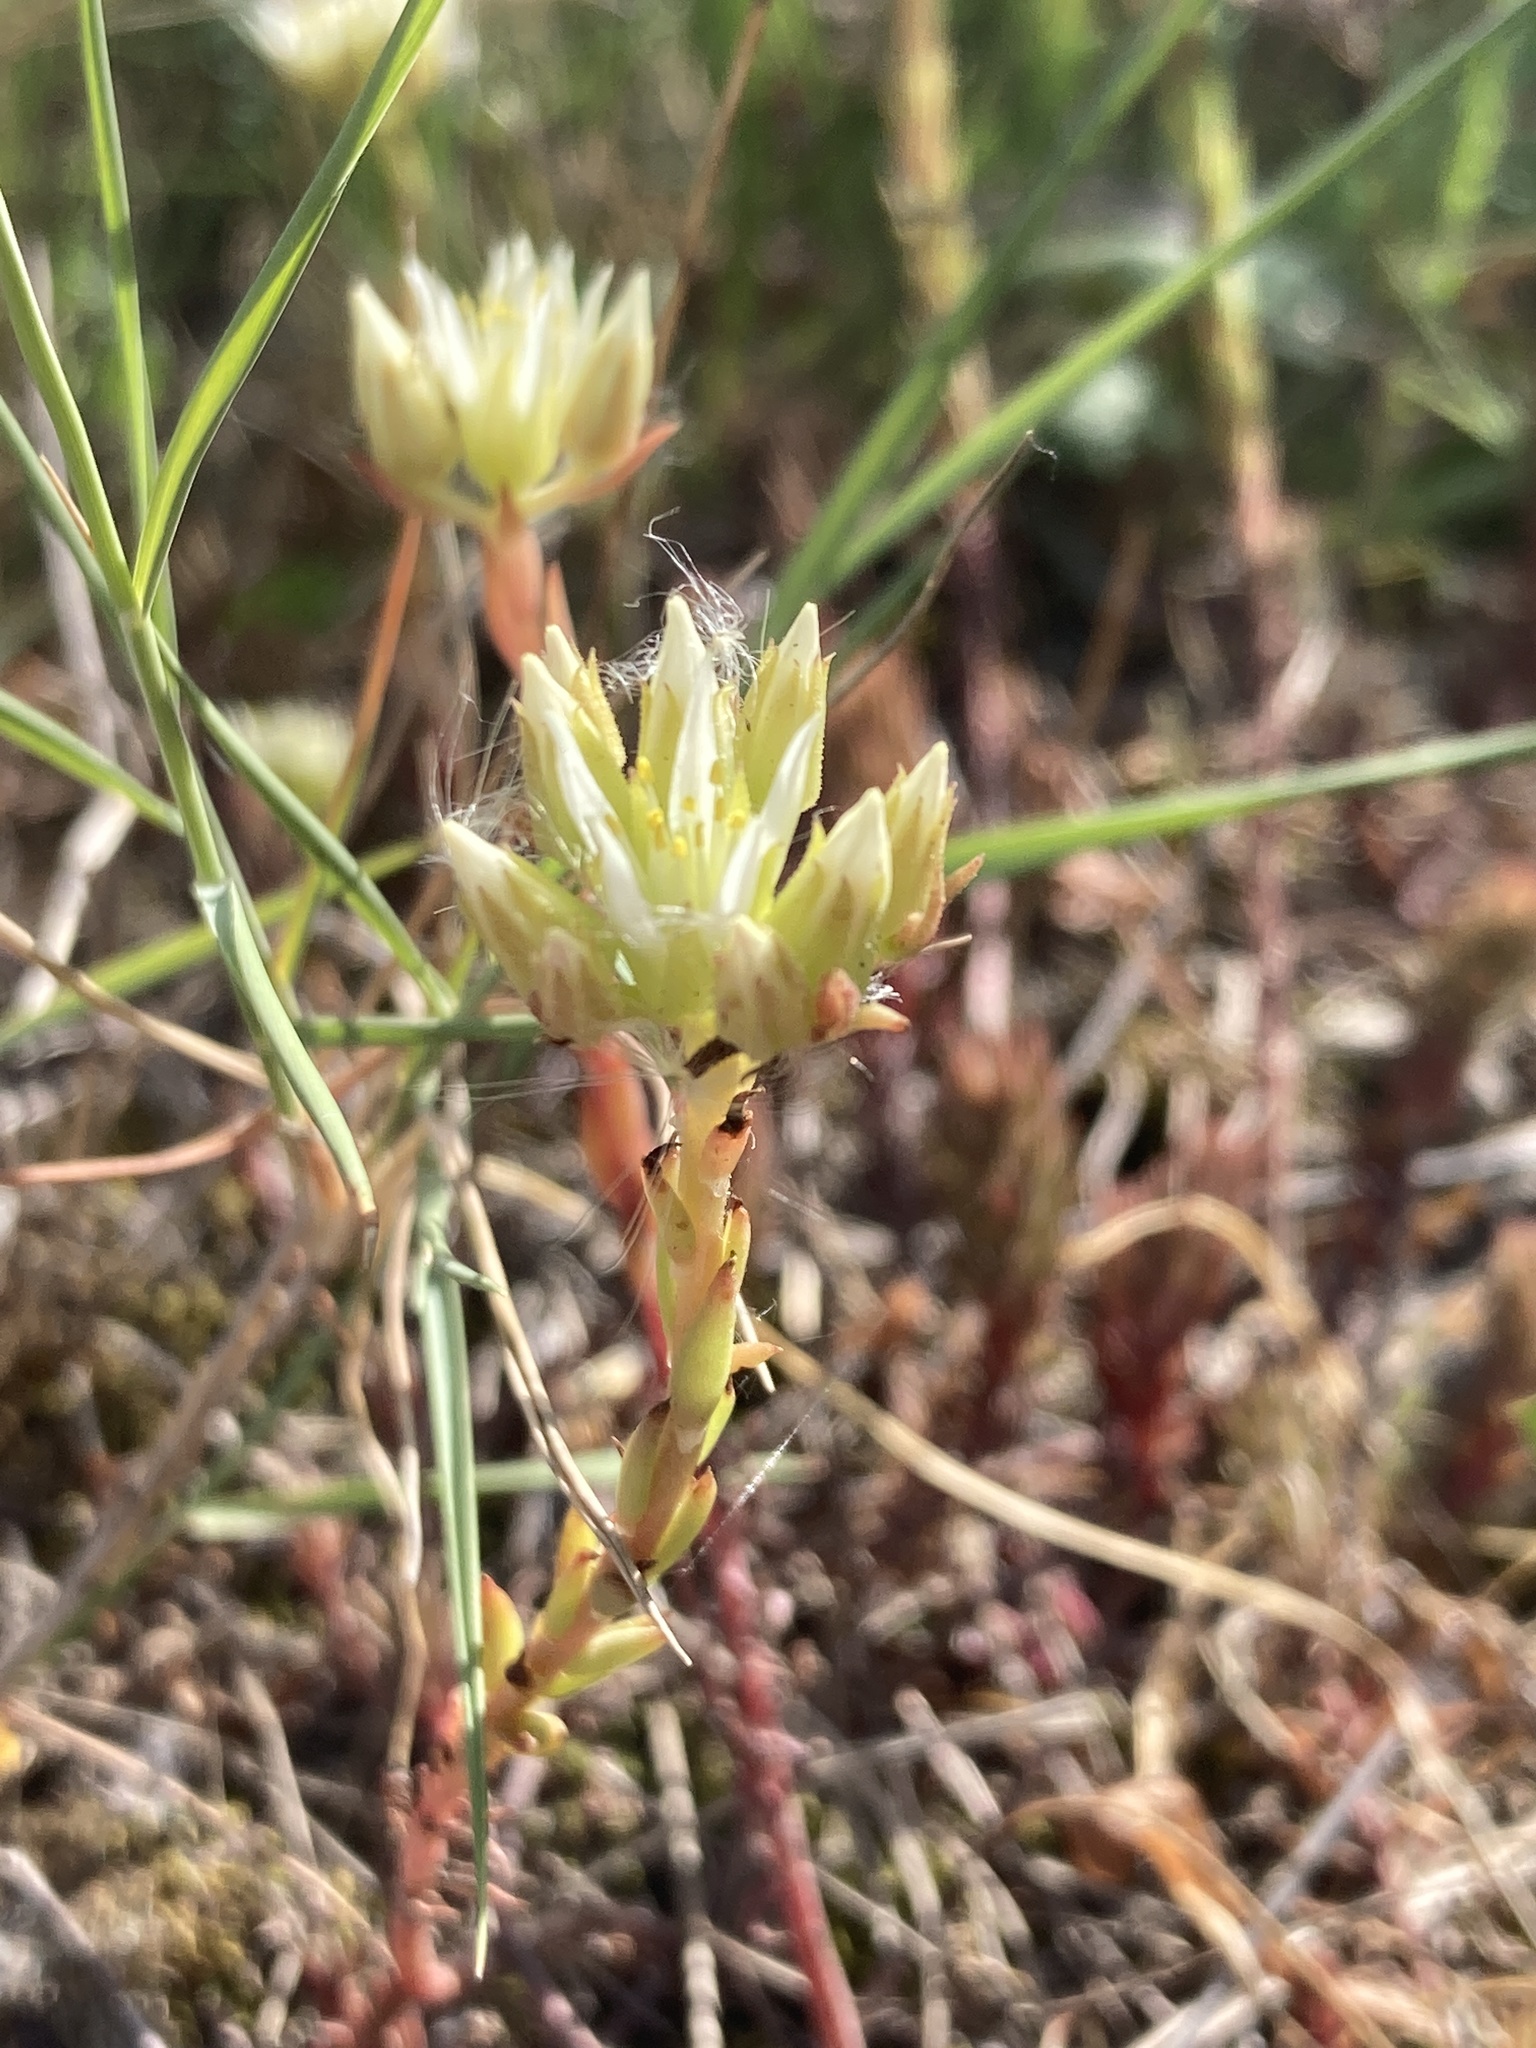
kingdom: Plantae
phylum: Tracheophyta
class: Magnoliopsida
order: Saxifragales
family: Crassulaceae
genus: Petrosedum
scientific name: Petrosedum ochroleucum
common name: European stonecrop
